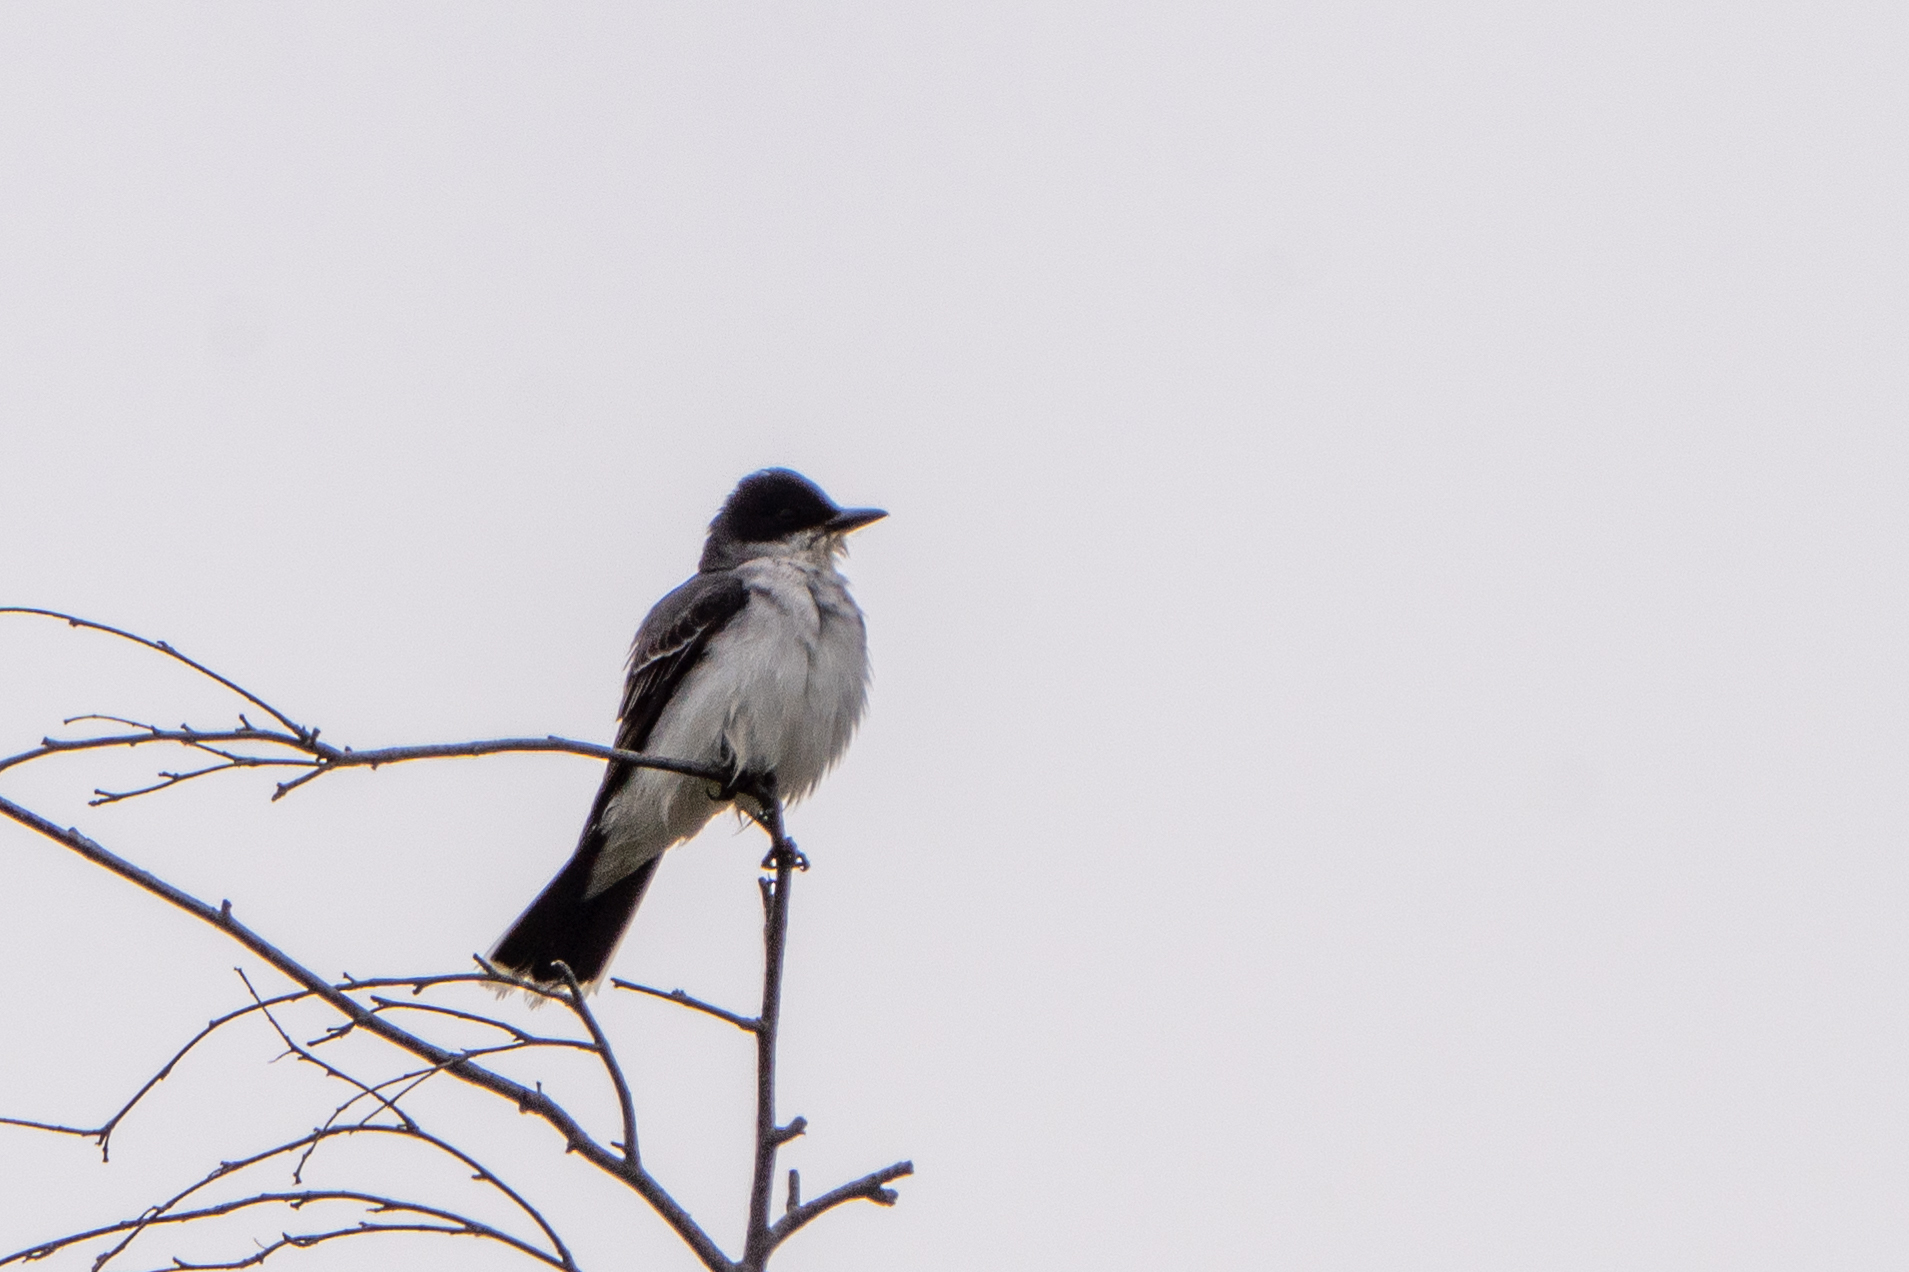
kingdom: Animalia
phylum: Chordata
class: Aves
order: Passeriformes
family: Tyrannidae
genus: Tyrannus
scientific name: Tyrannus tyrannus
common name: Eastern kingbird
